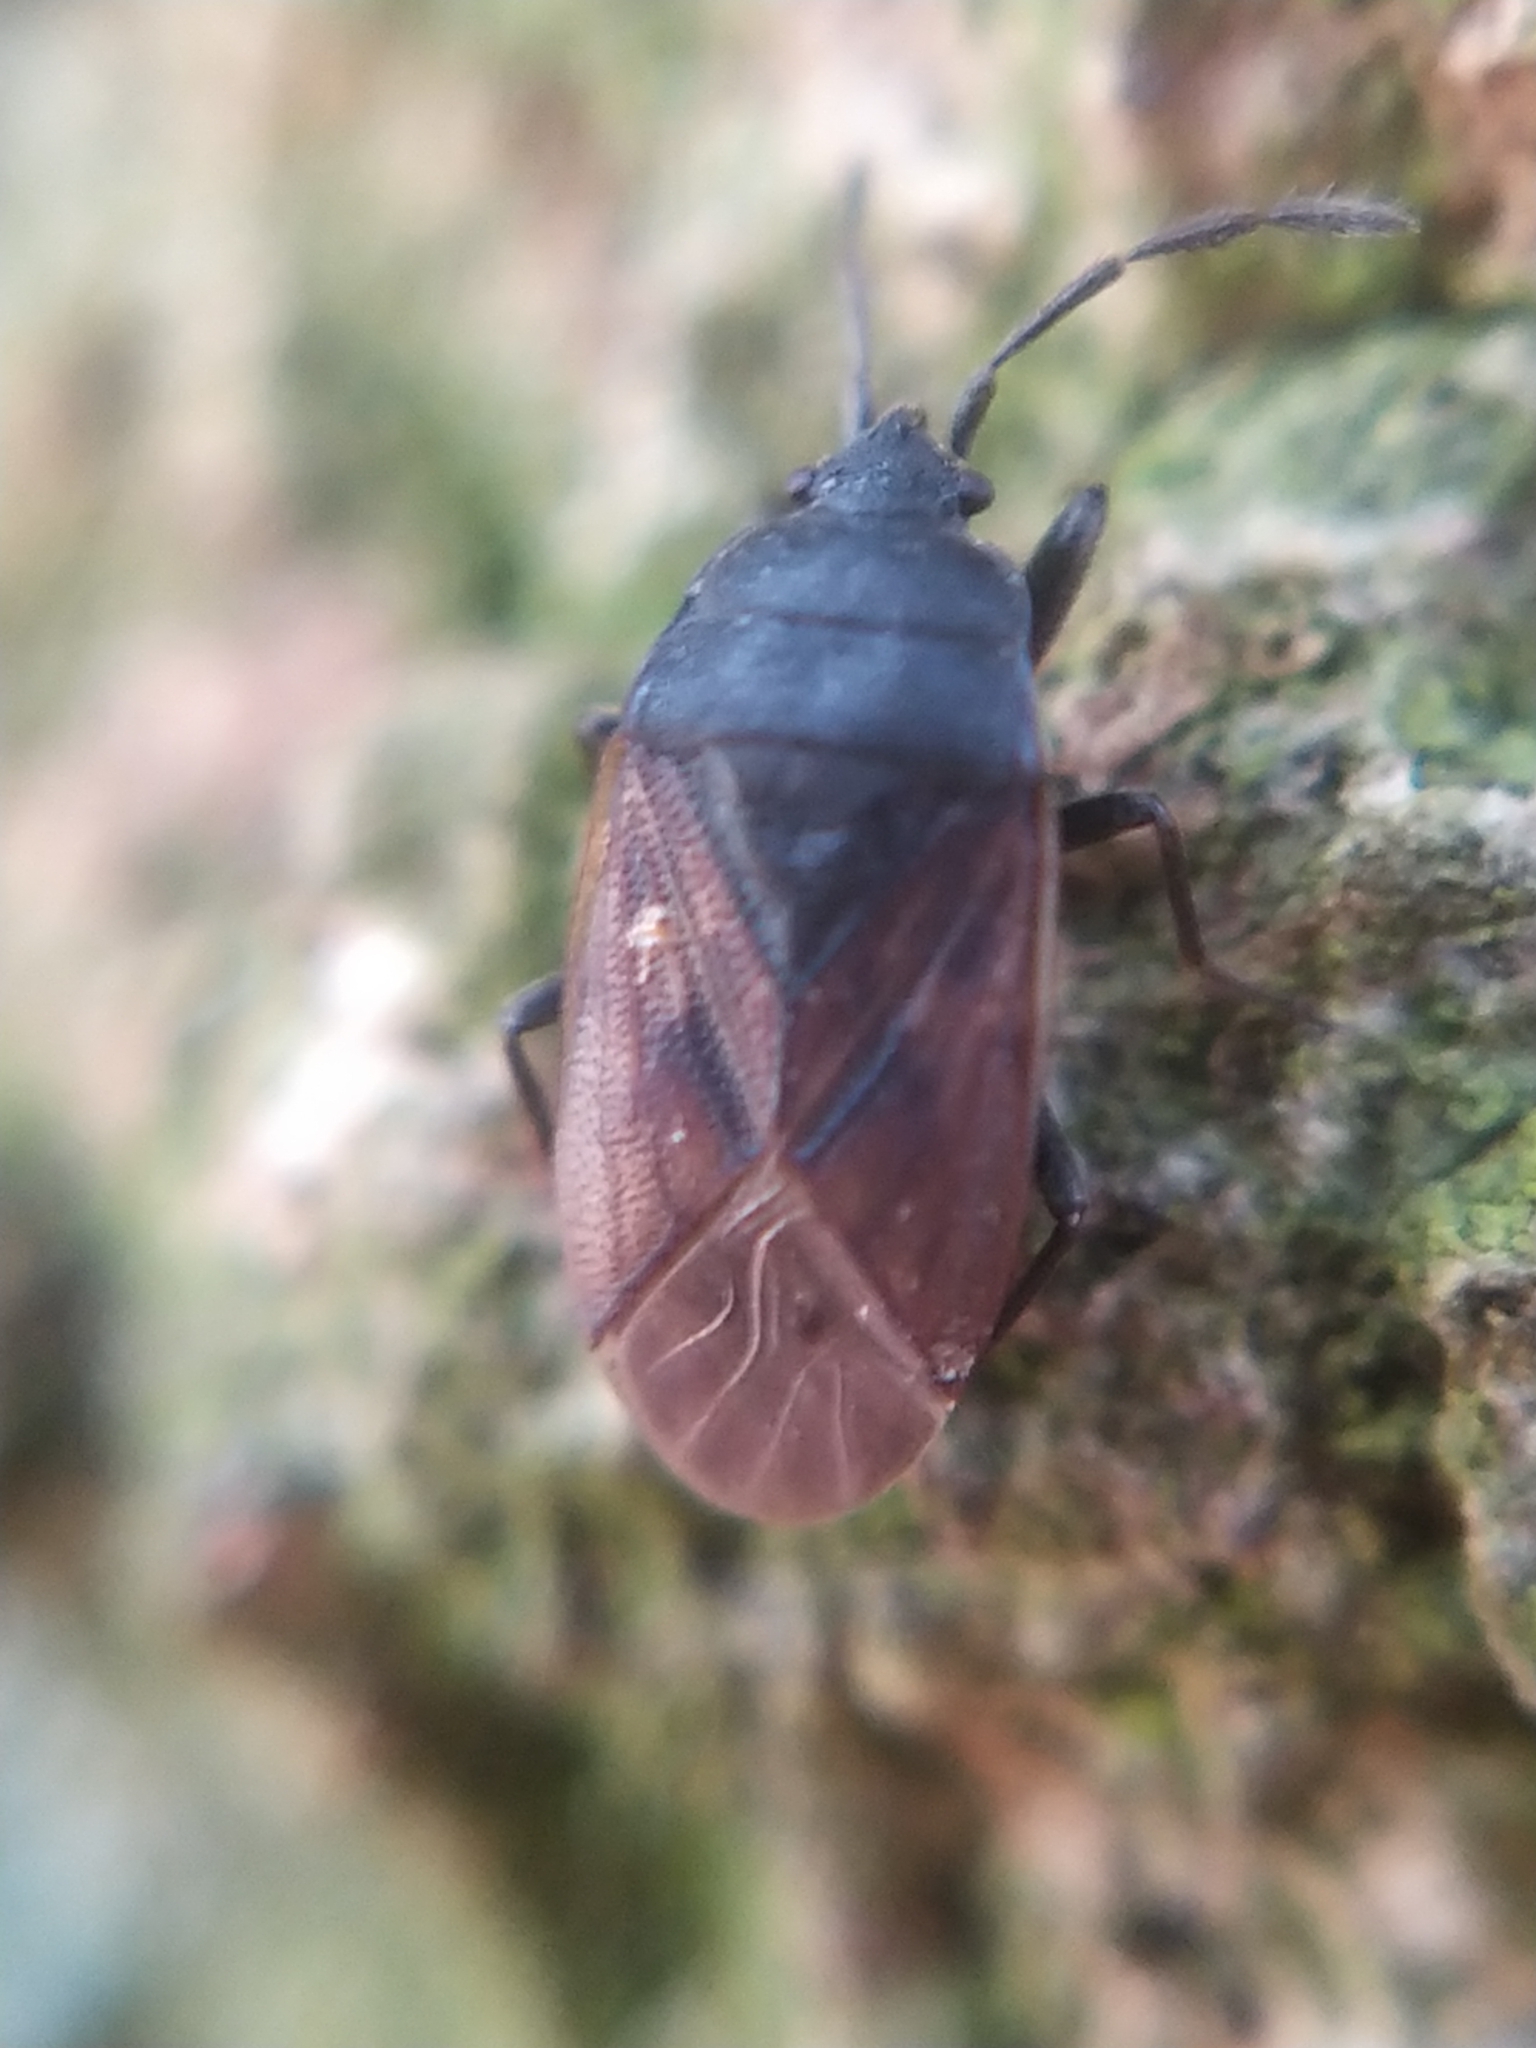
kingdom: Animalia
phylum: Arthropoda
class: Insecta
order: Hemiptera
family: Rhyparochromidae
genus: Drymus
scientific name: Drymus sylvaticus
